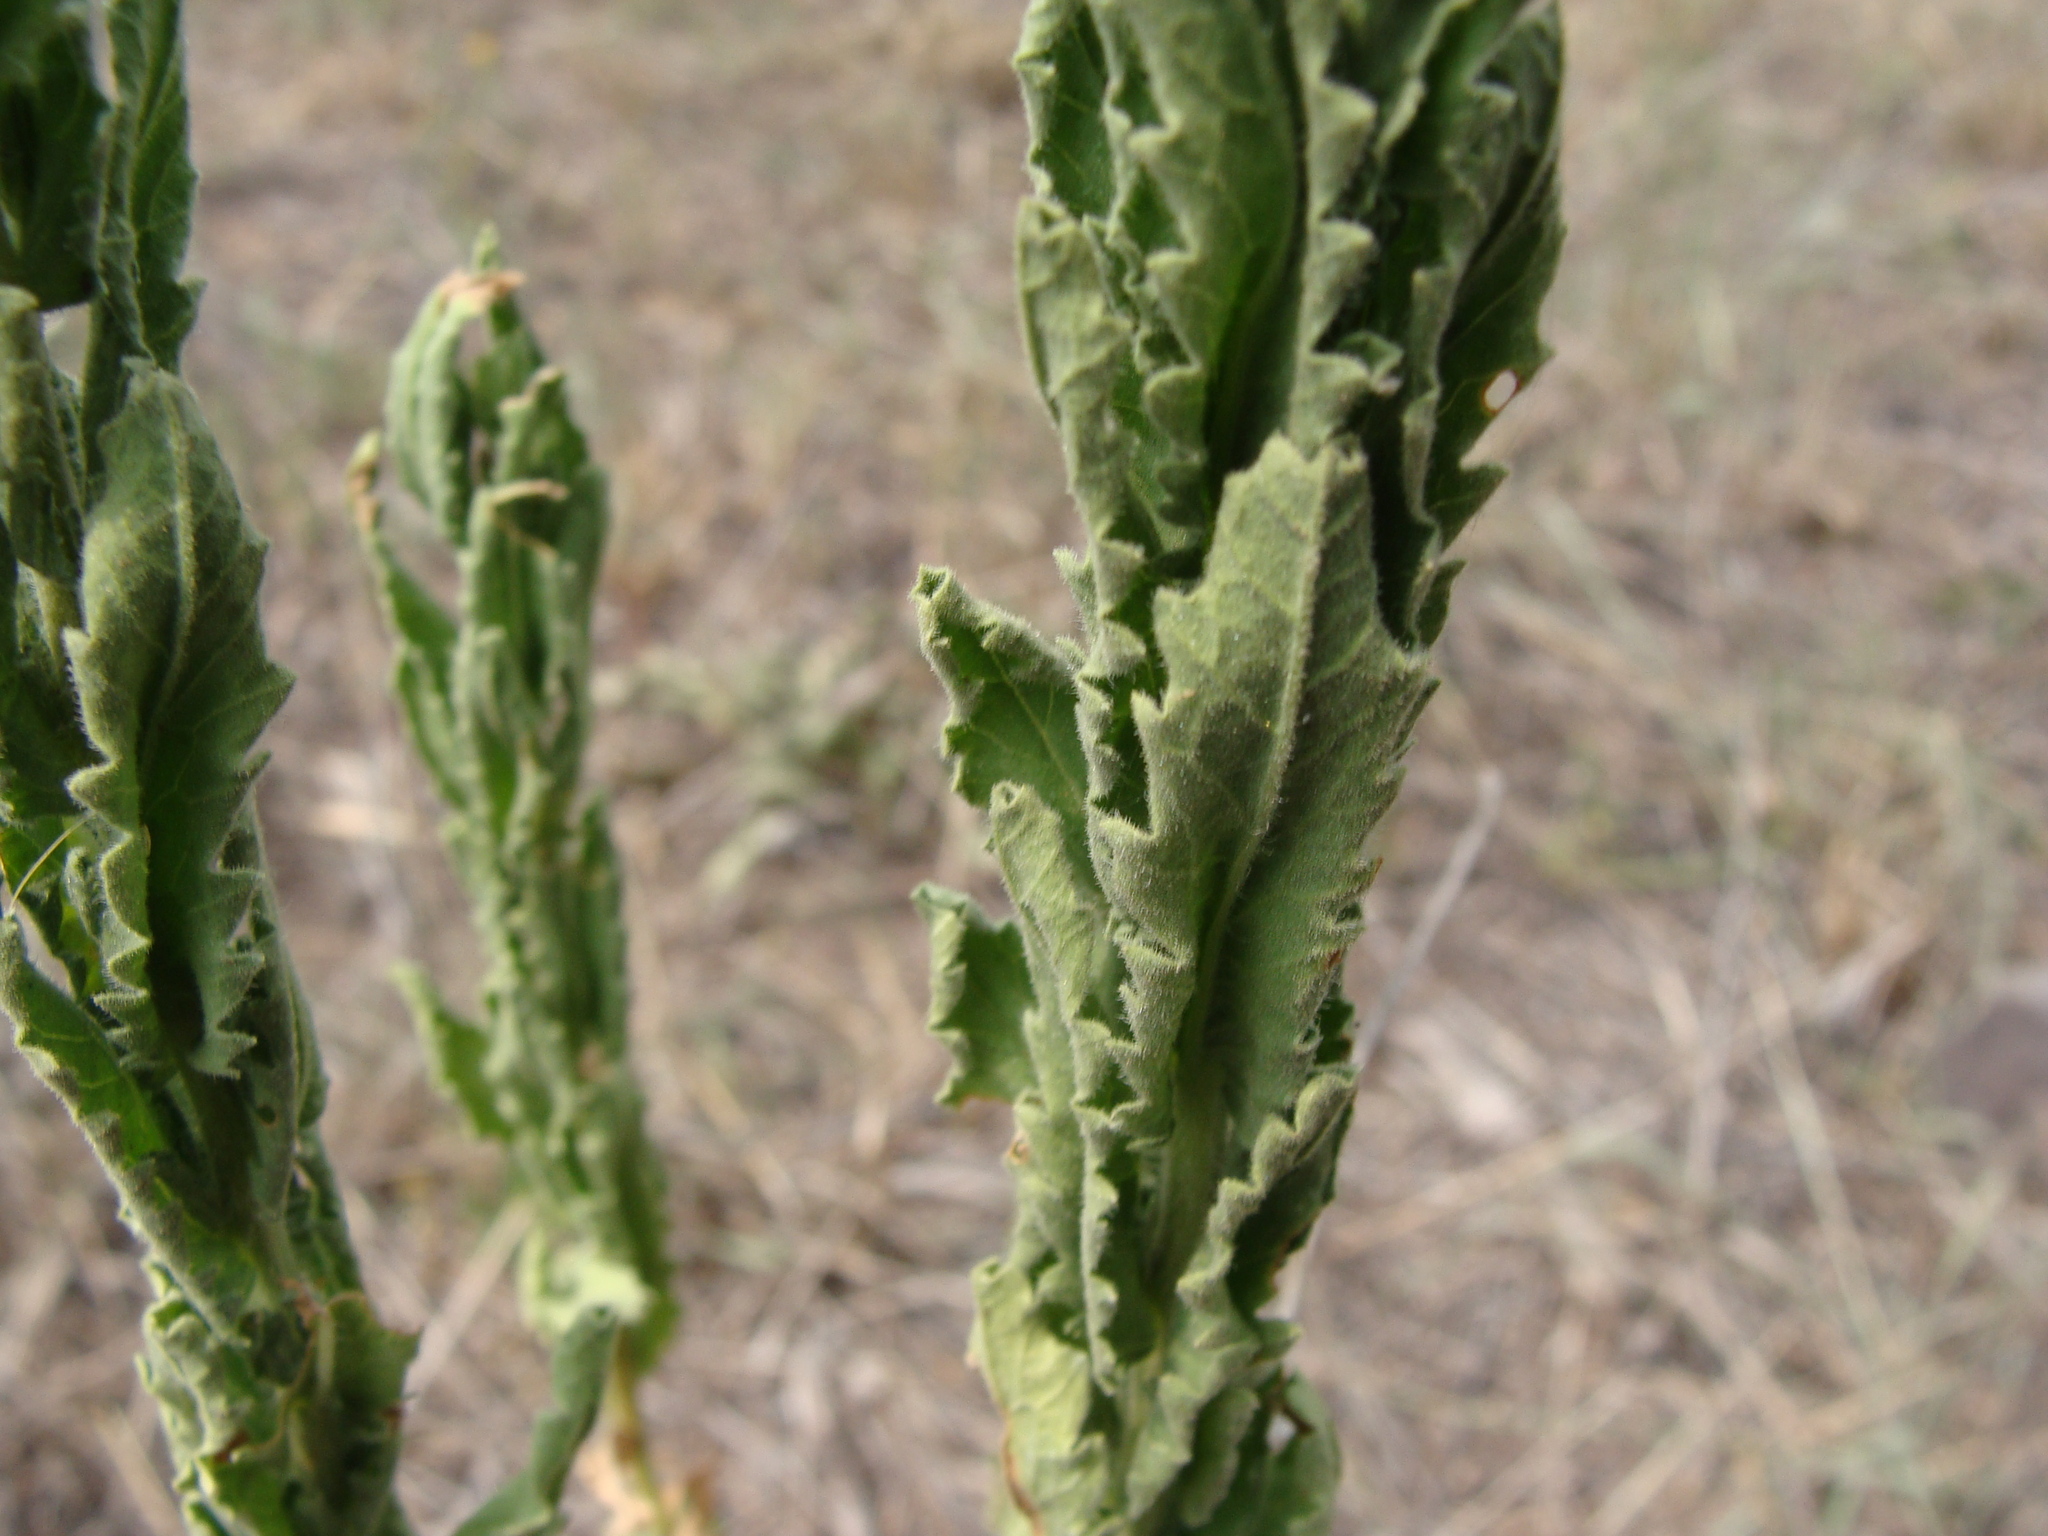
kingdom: Plantae
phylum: Tracheophyta
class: Magnoliopsida
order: Asterales
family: Asteraceae
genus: Laennecia
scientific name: Laennecia coulteri
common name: Coulter's woolwort
